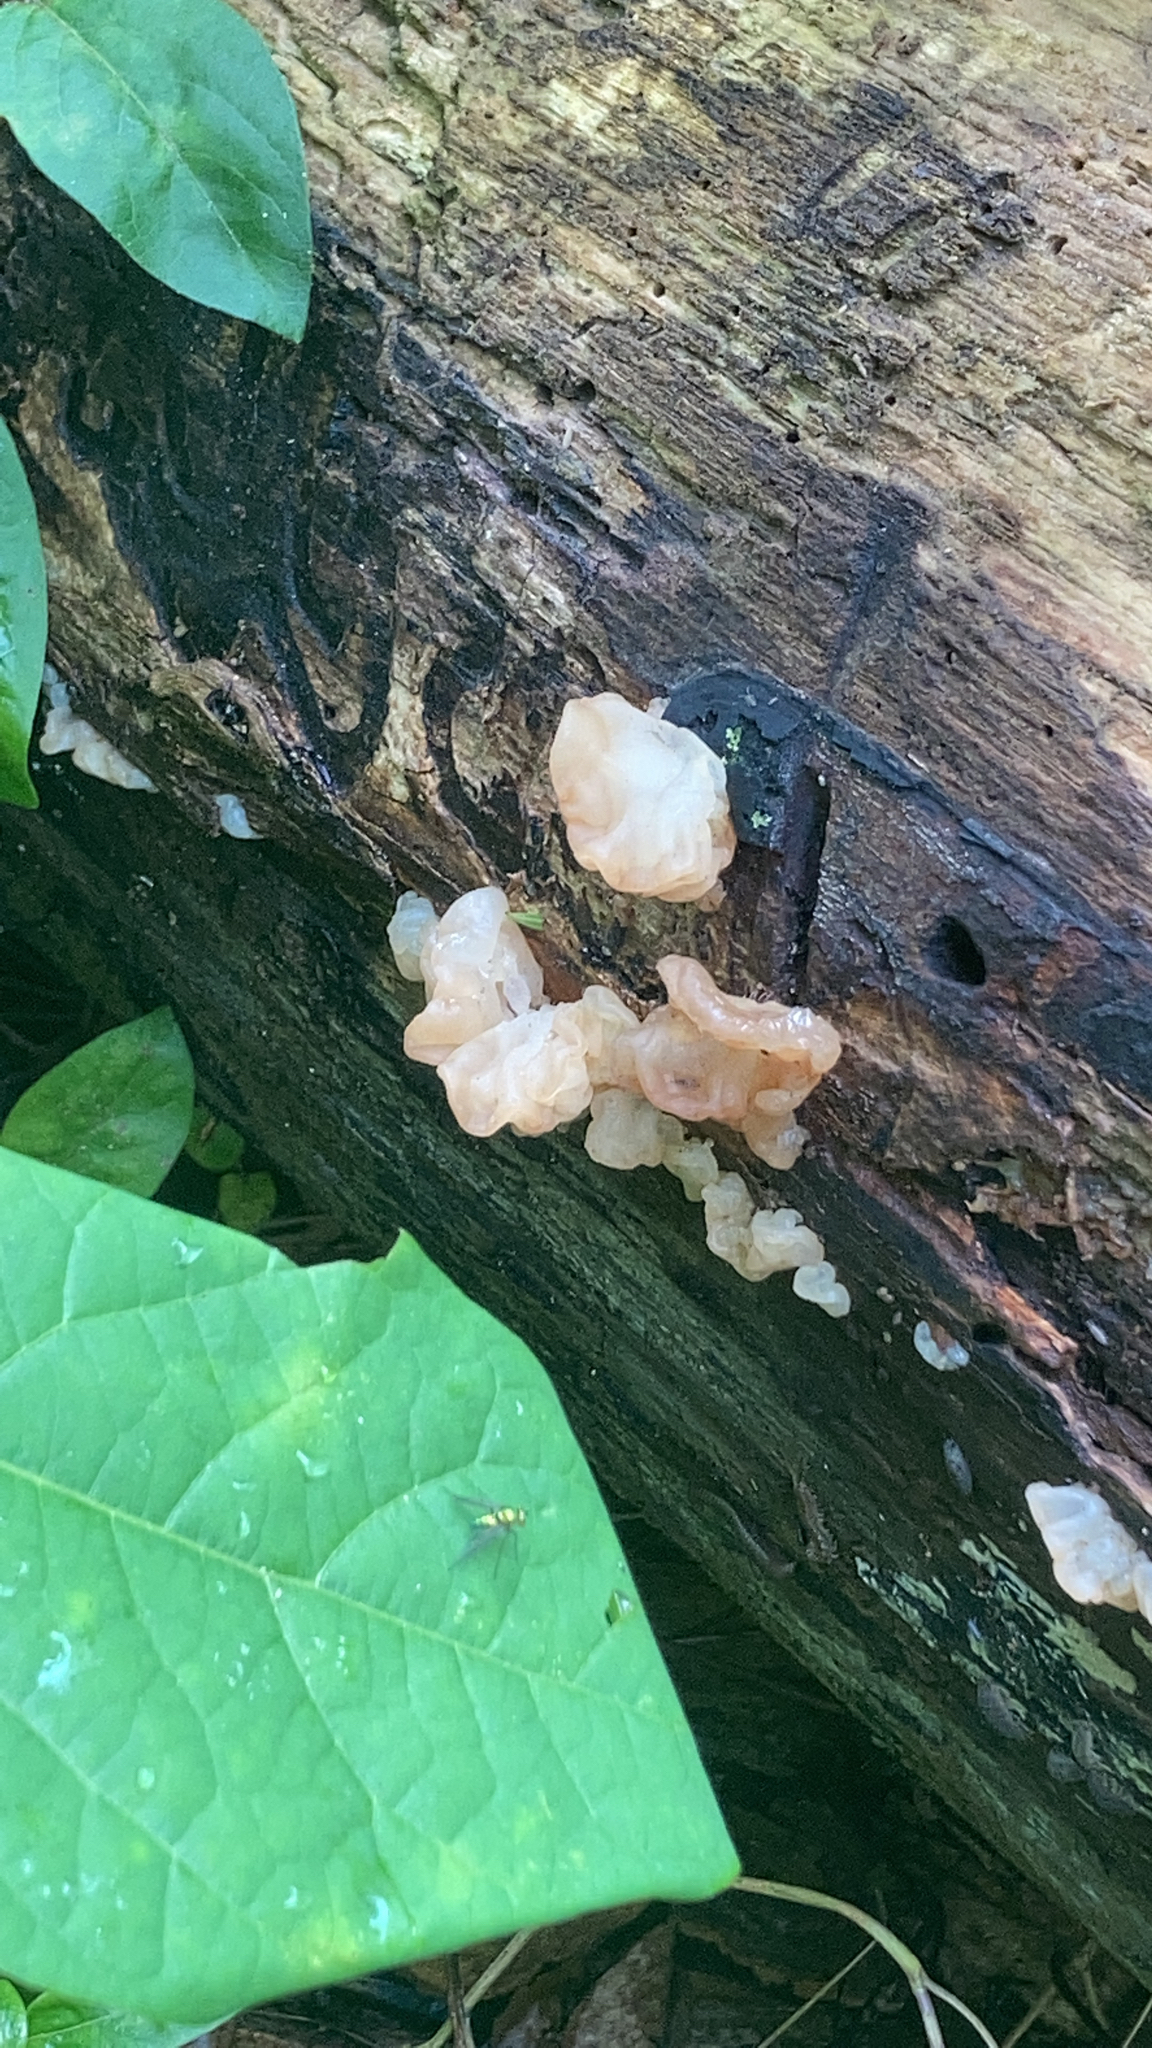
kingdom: Fungi
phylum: Basidiomycota
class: Agaricomycetes
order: Auriculariales
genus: Ductifera
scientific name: Ductifera pululahuana
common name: White jelly fungus
